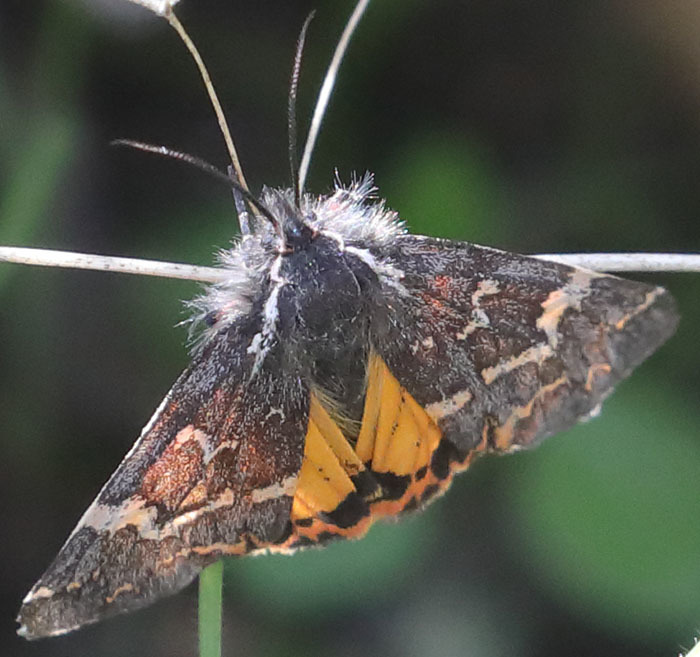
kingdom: Animalia
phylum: Arthropoda
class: Insecta
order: Lepidoptera
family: Erebidae
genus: Leptarctia
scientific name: Leptarctia californiae
